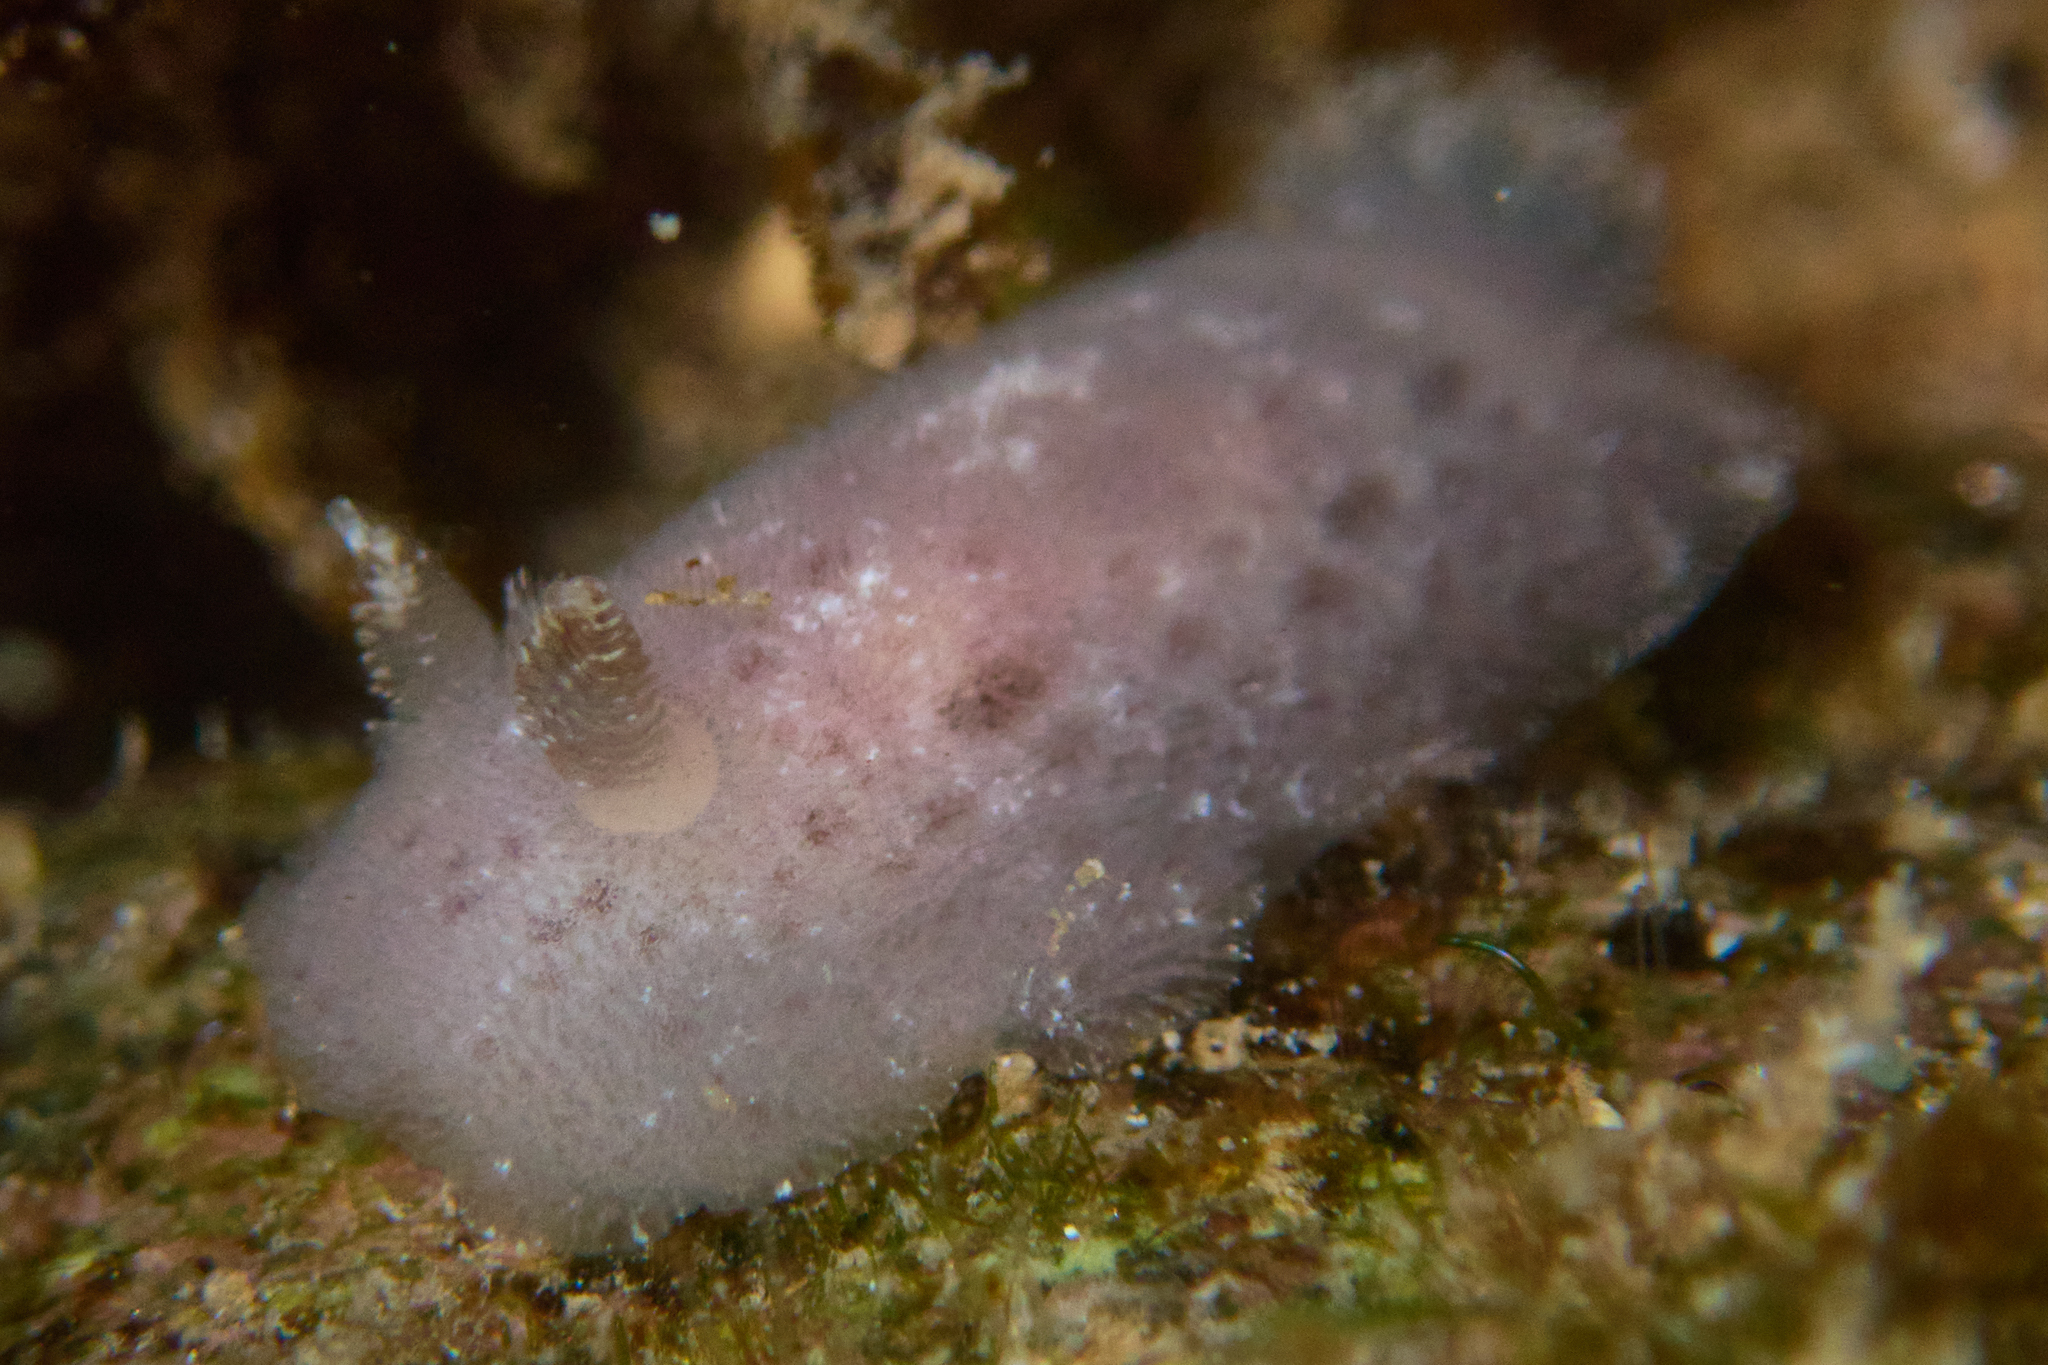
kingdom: Animalia
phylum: Mollusca
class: Gastropoda
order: Nudibranchia
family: Discodorididae
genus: Jorunna
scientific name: Jorunna alisonae
